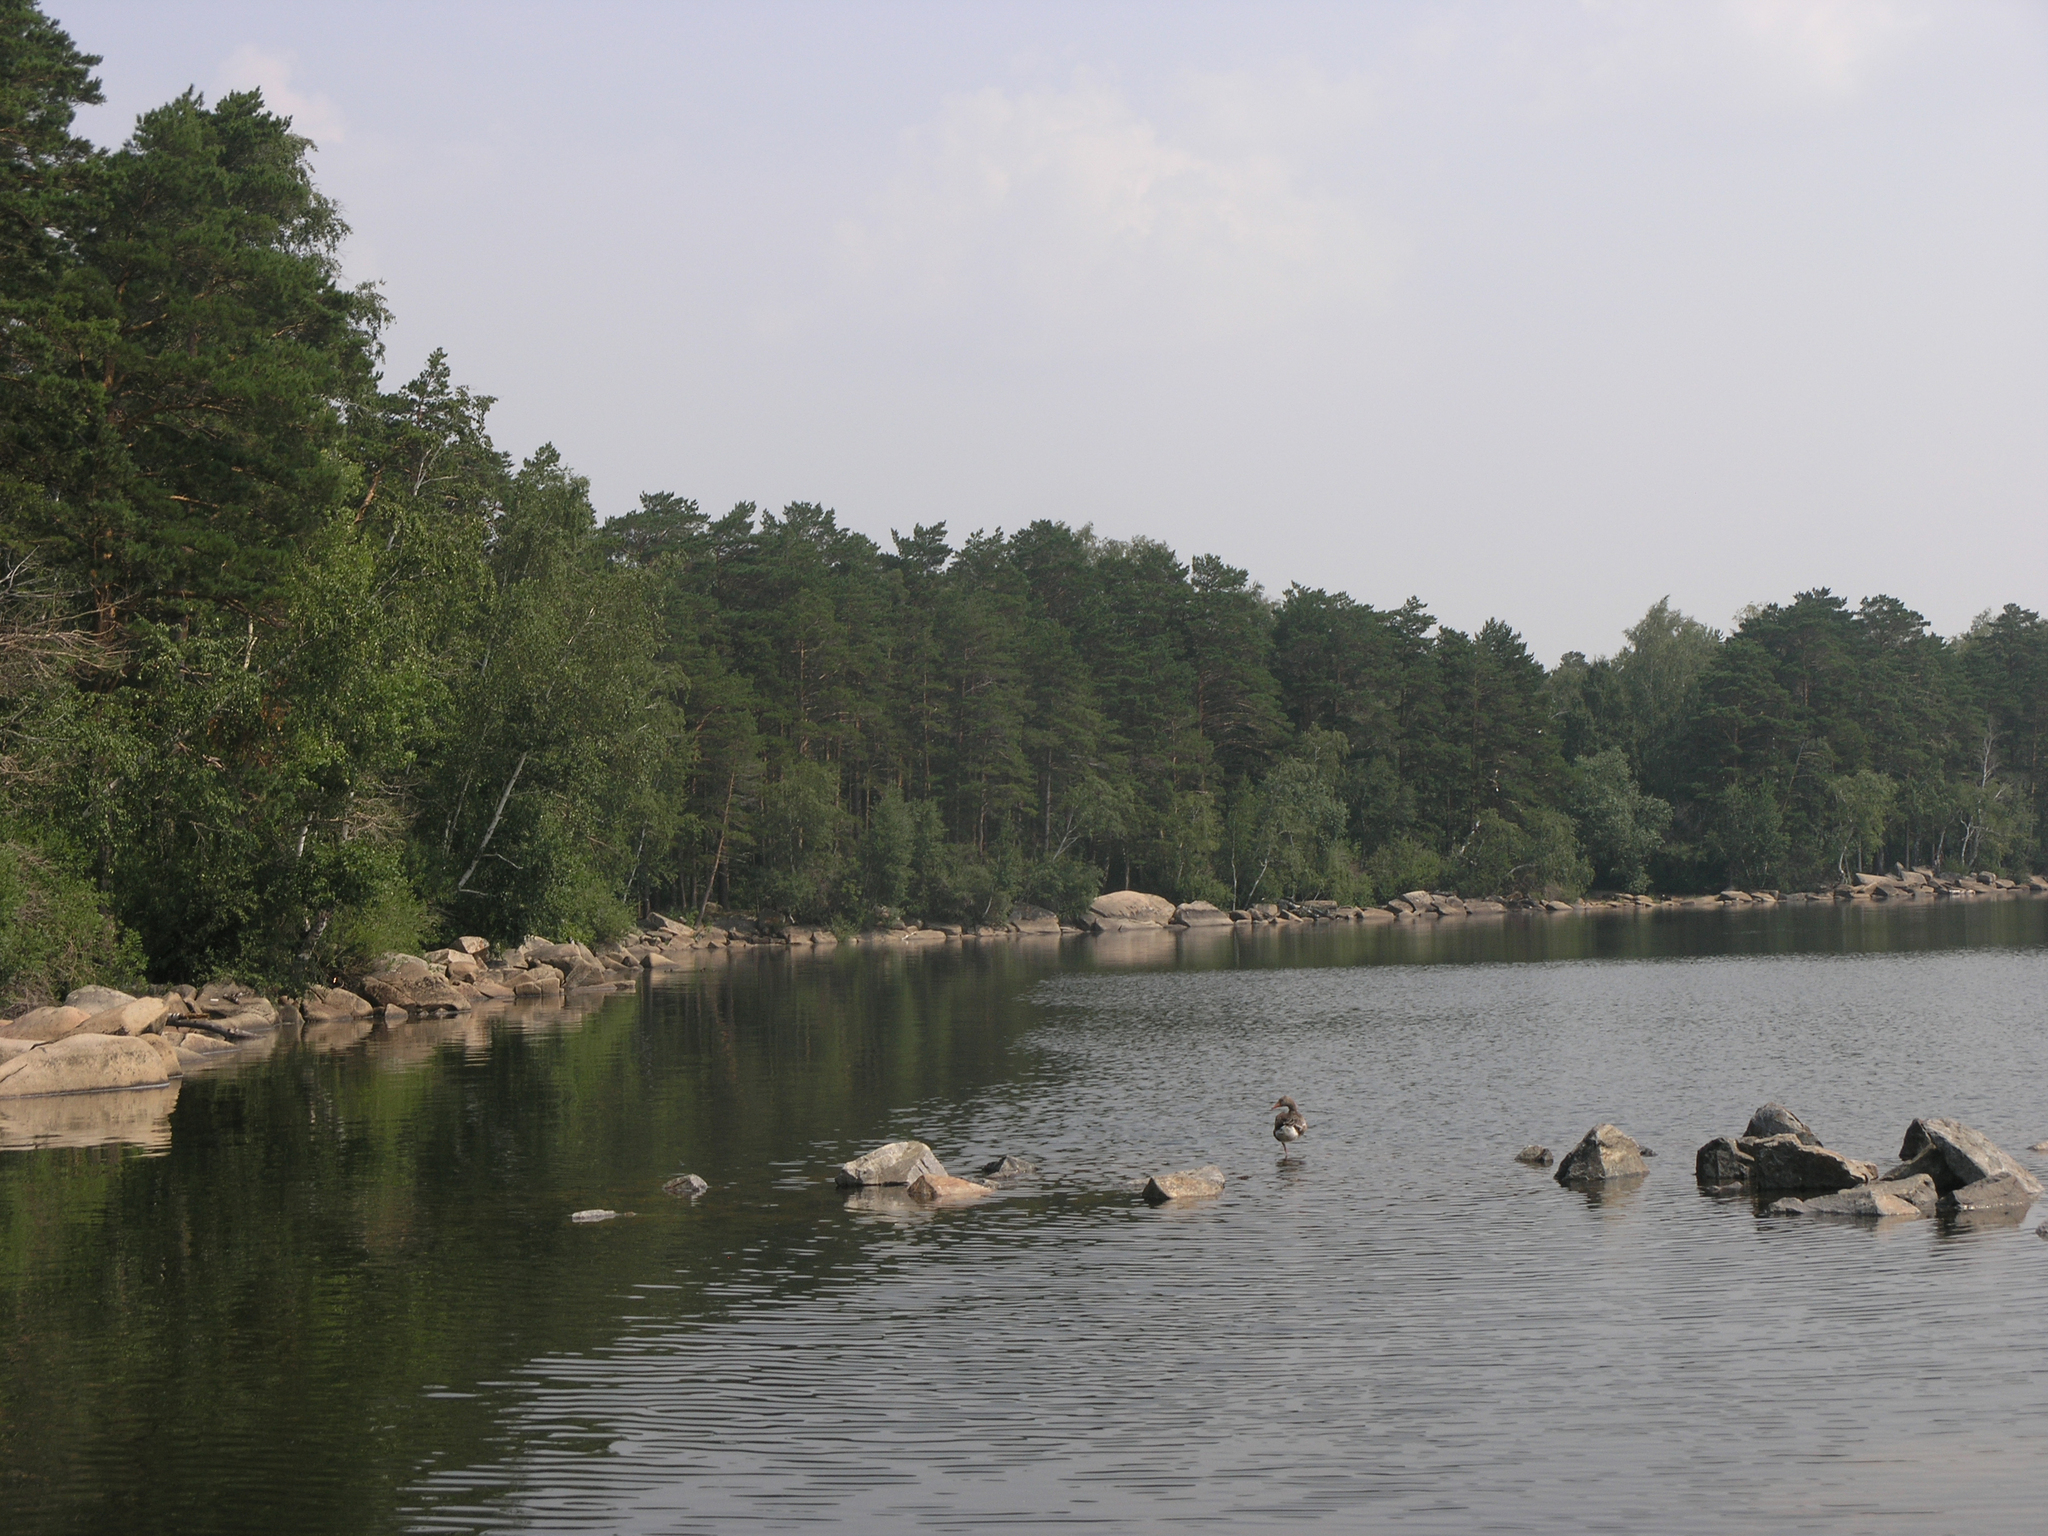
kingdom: Plantae
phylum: Tracheophyta
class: Pinopsida
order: Pinales
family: Pinaceae
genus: Pinus
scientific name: Pinus sylvestris
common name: Scots pine
